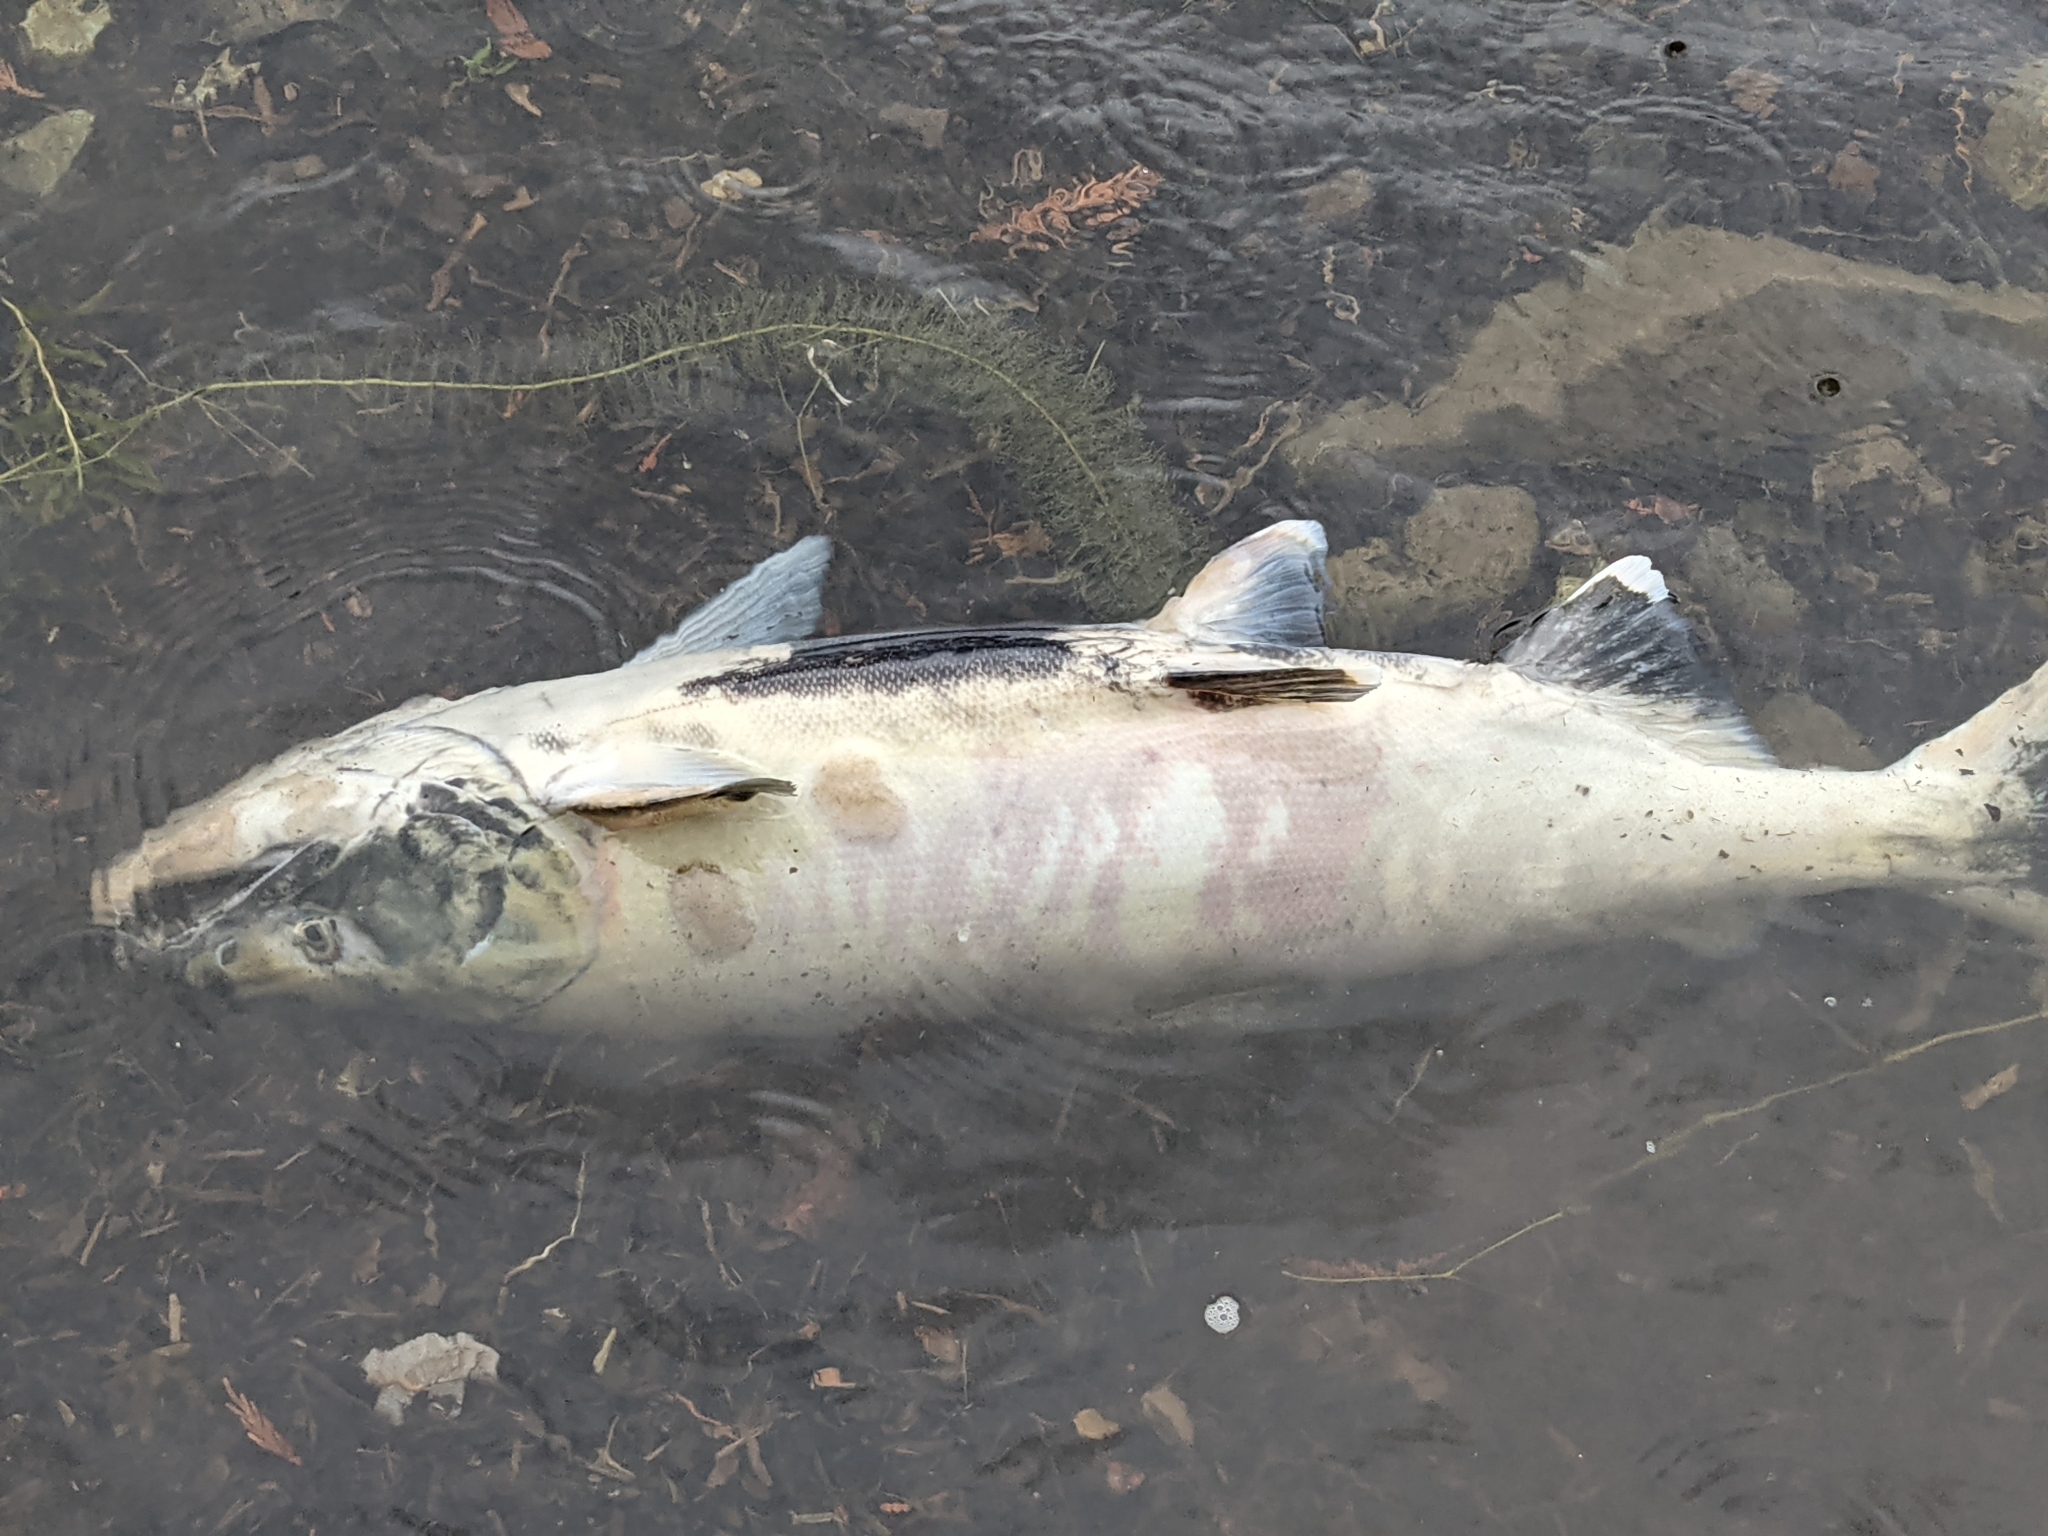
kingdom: Animalia
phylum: Chordata
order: Salmoniformes
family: Salmonidae
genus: Oncorhynchus
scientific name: Oncorhynchus keta
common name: Chum salmon
